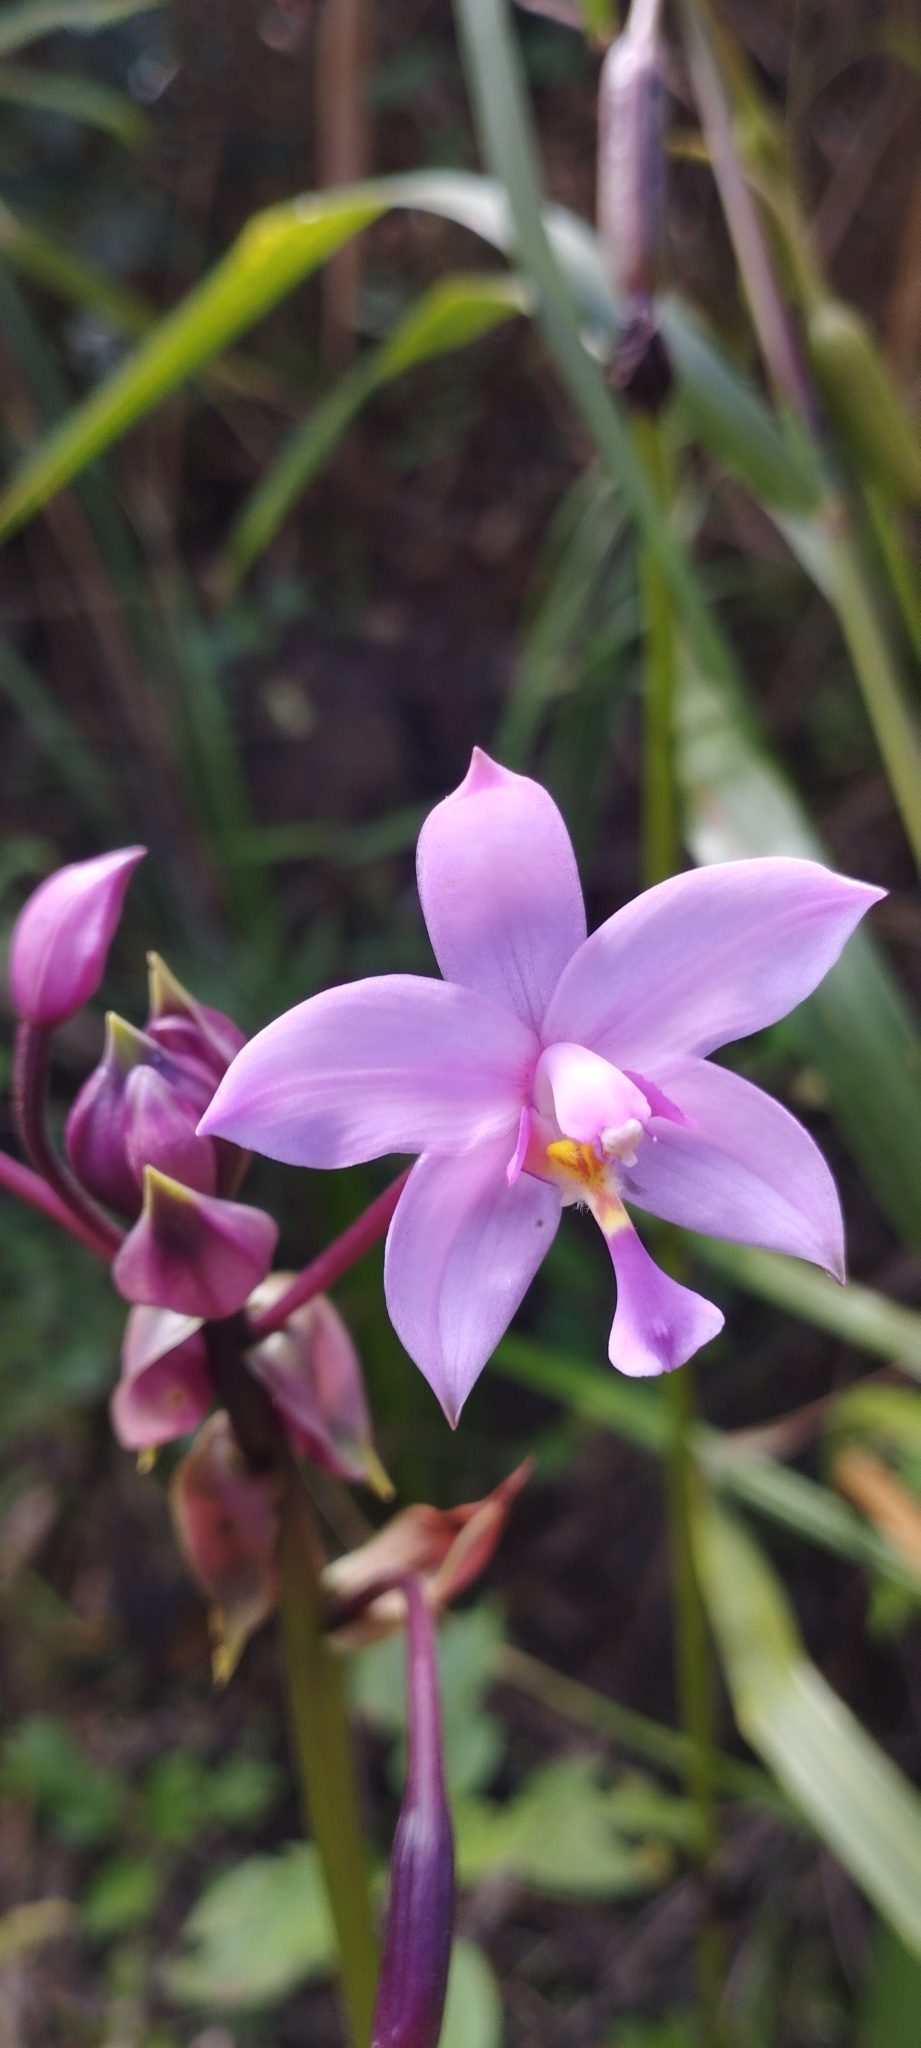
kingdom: Plantae
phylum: Tracheophyta
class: Liliopsida
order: Asparagales
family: Orchidaceae
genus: Spathoglottis
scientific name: Spathoglottis plicata
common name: Philippine ground orchid
